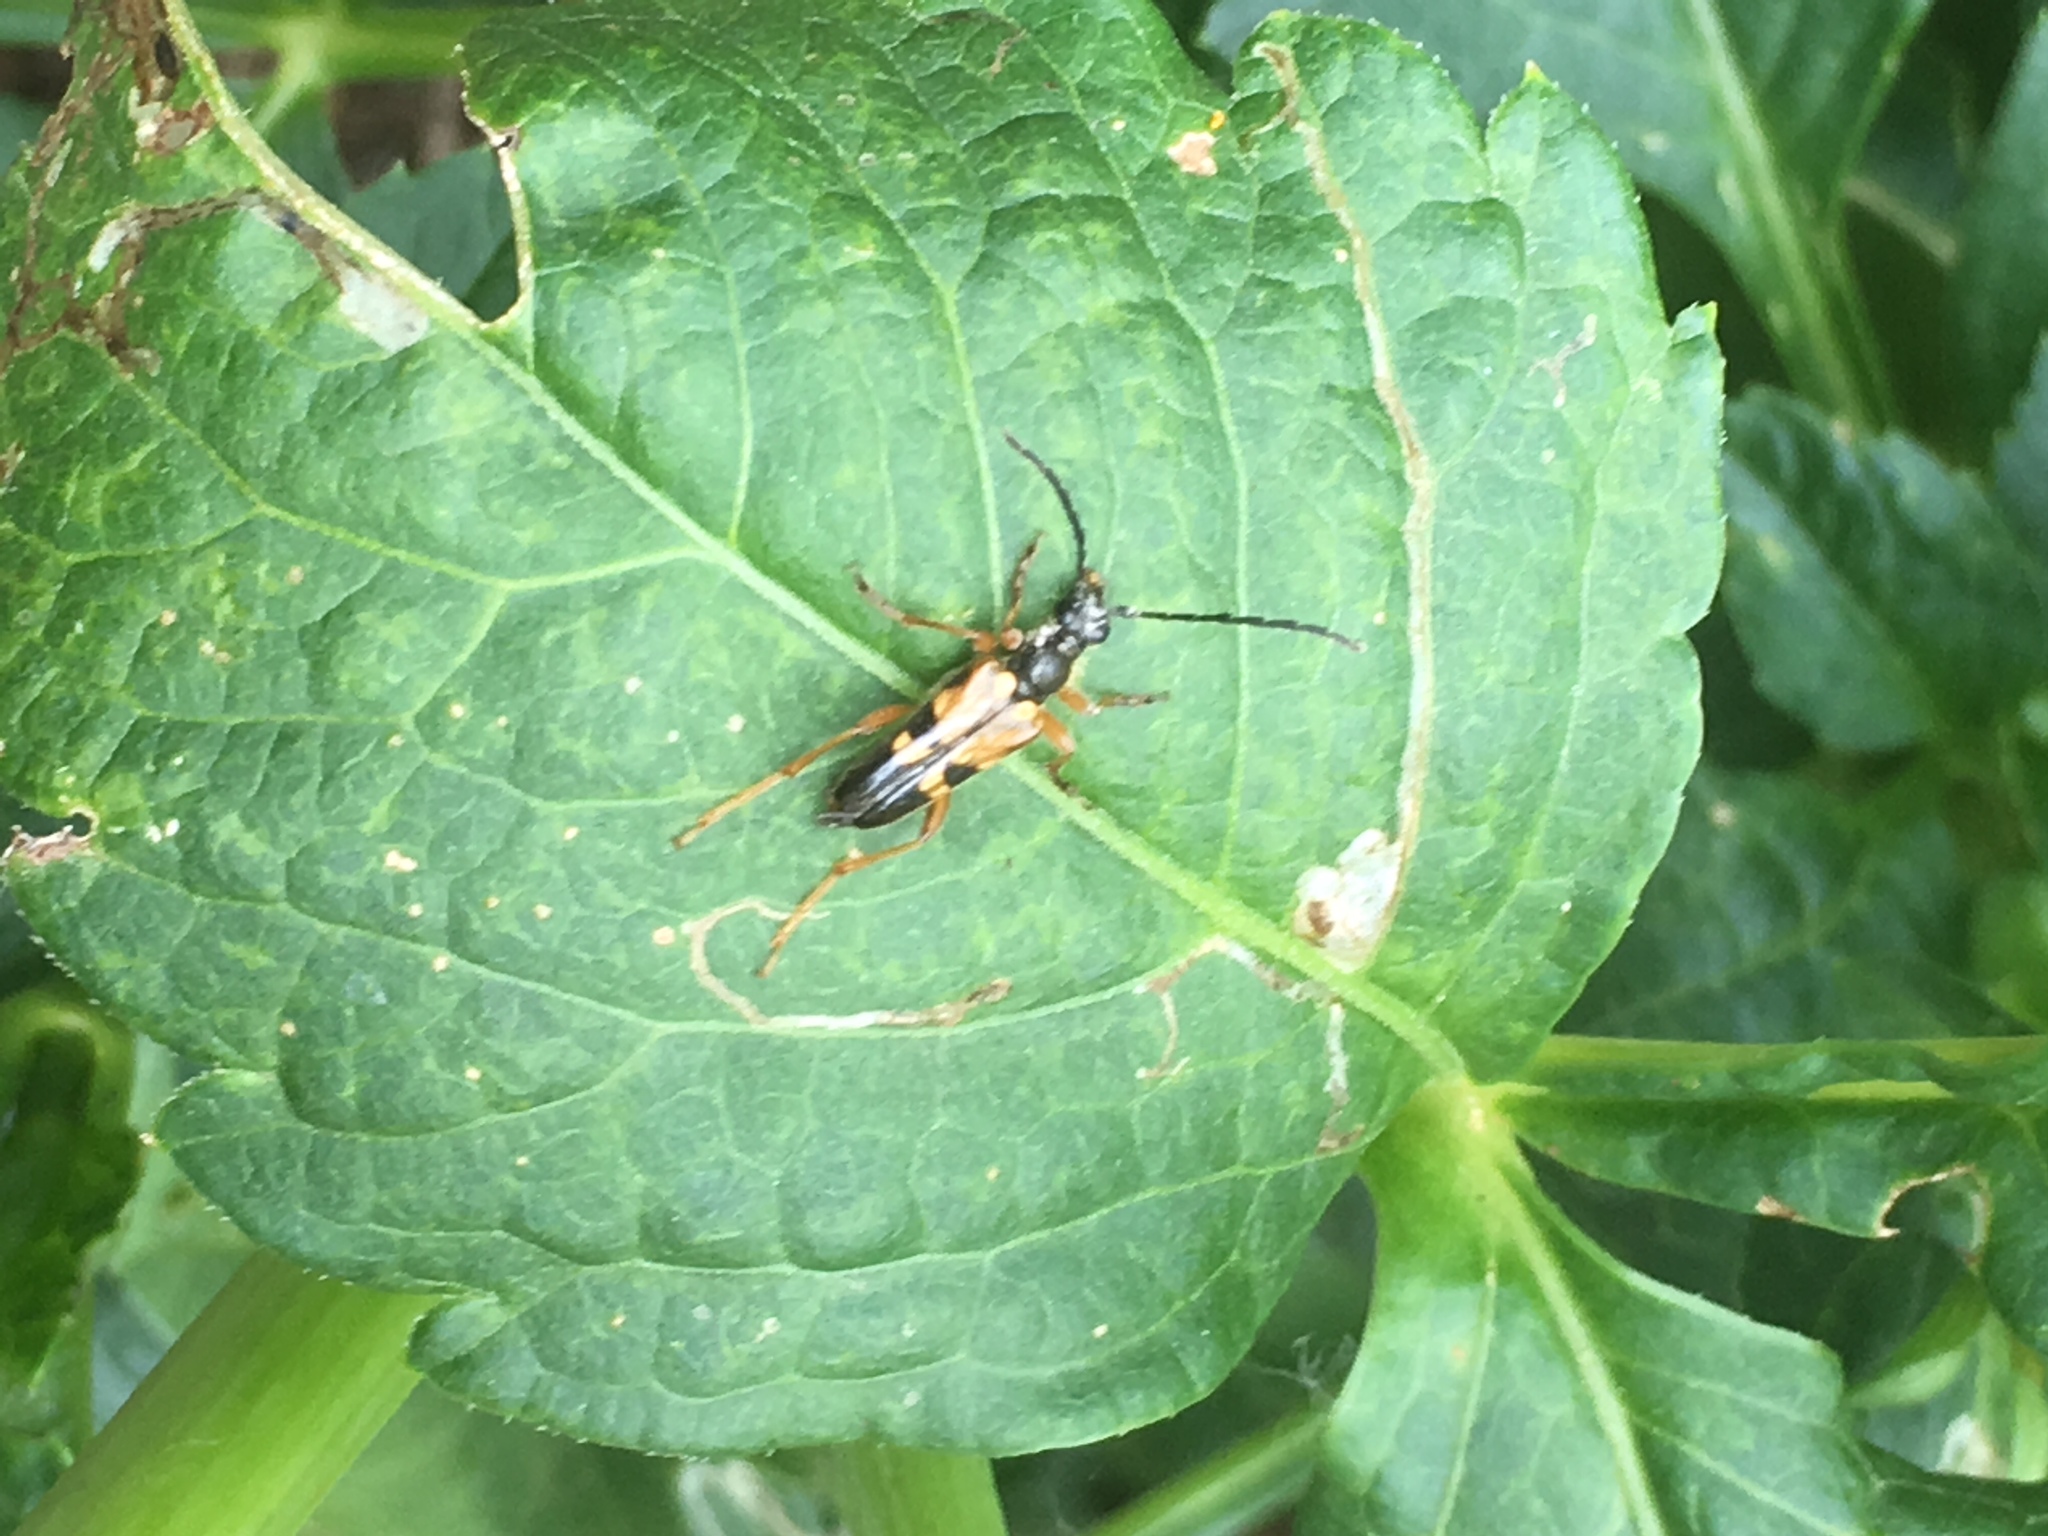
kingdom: Animalia
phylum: Arthropoda
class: Insecta
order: Coleoptera
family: Cerambycidae
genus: Xestoleptura
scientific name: Xestoleptura crassipes
